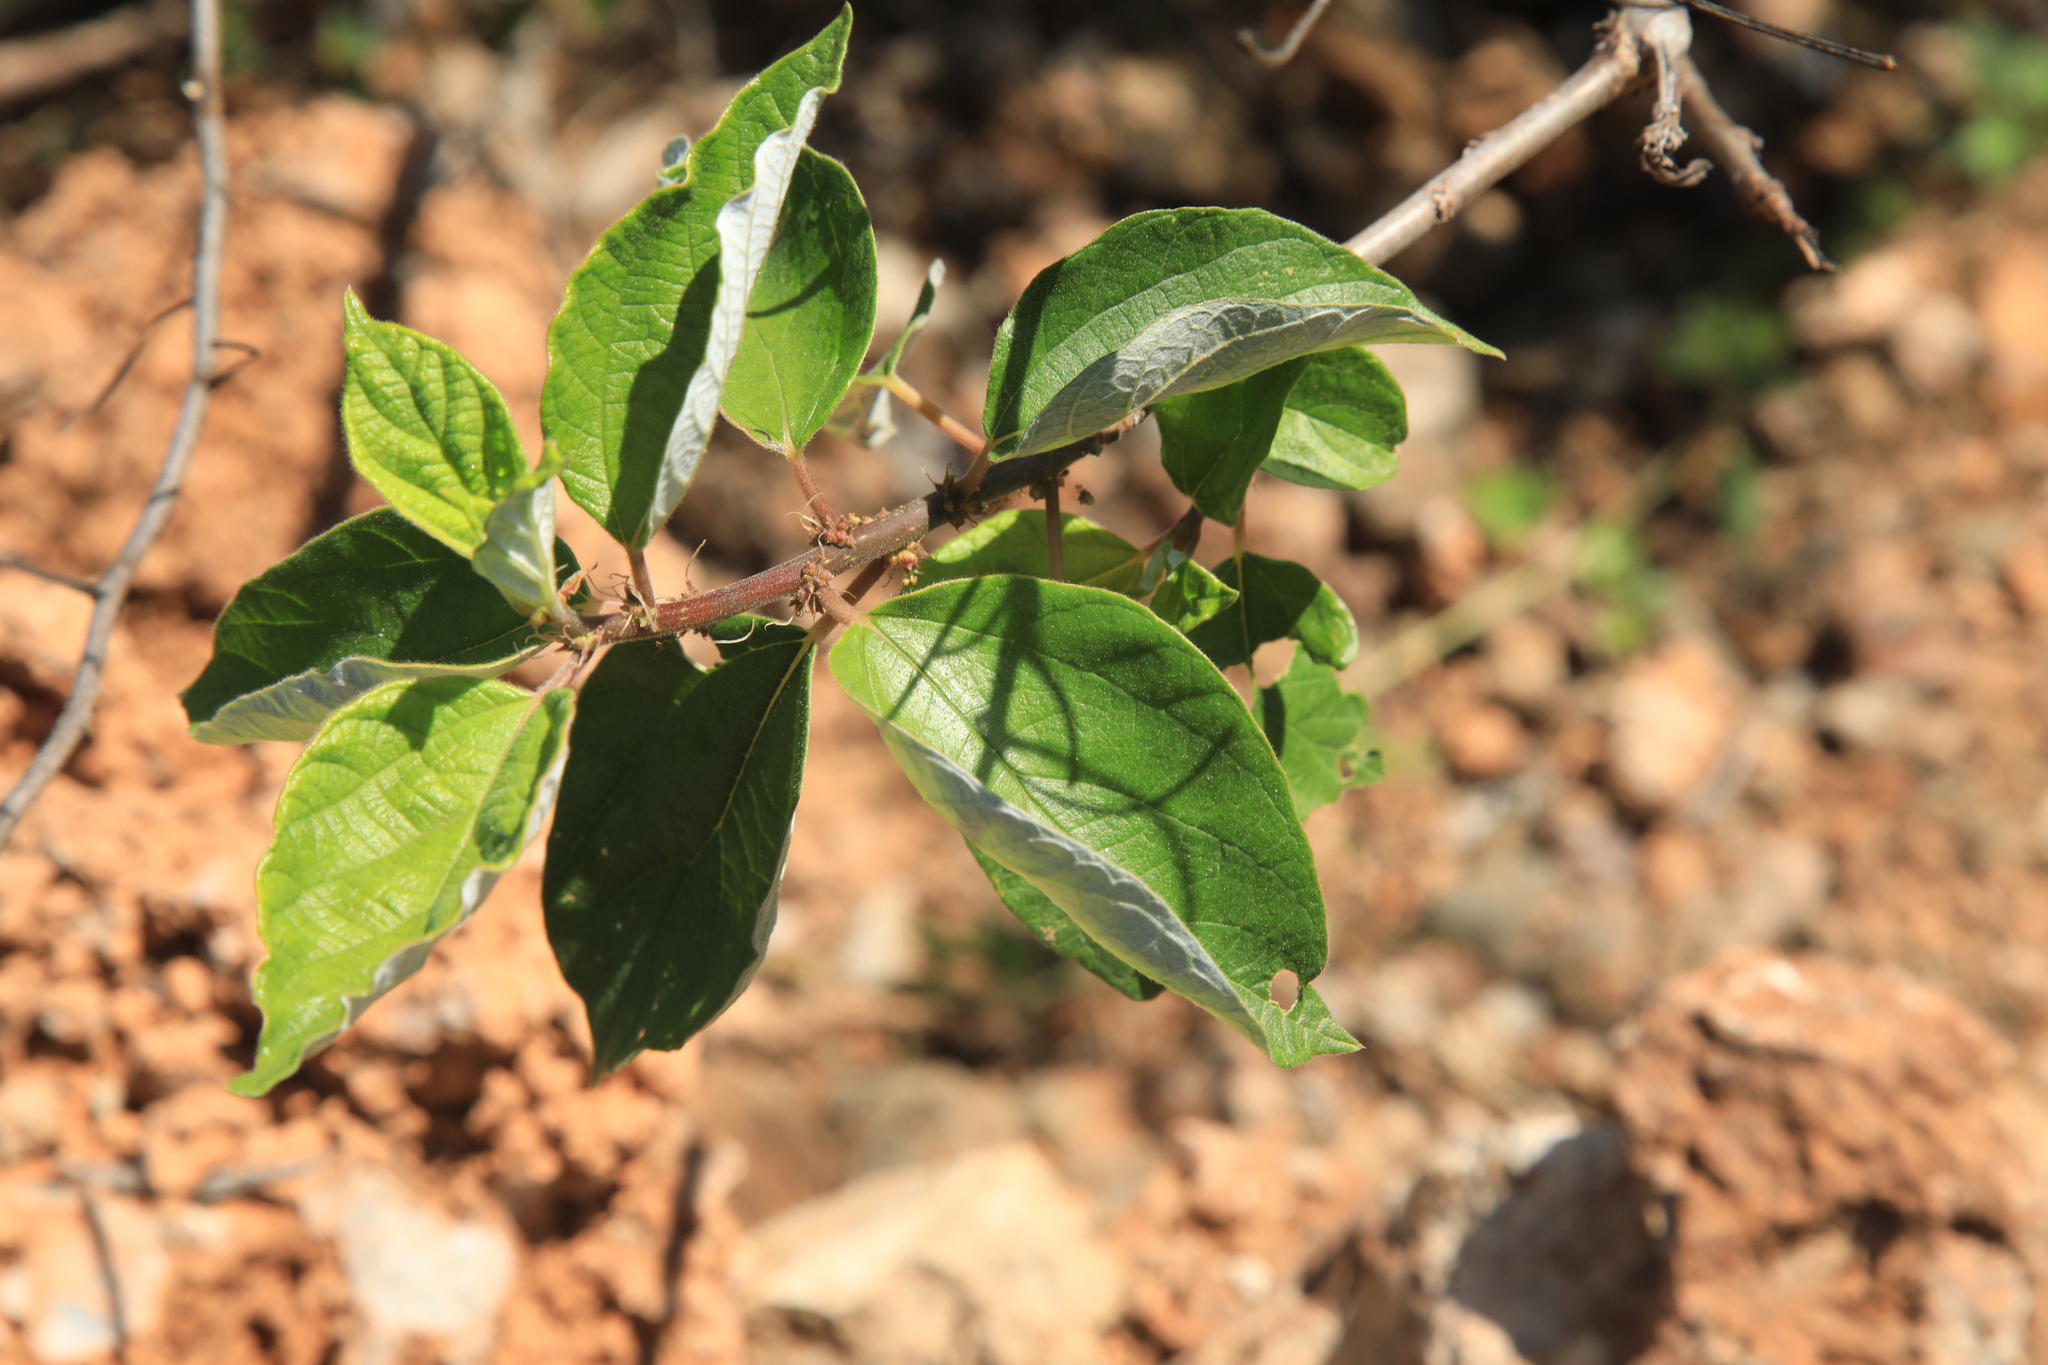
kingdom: Plantae
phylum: Tracheophyta
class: Magnoliopsida
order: Rosales
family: Urticaceae
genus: Pouzolzia
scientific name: Pouzolzia mixta
